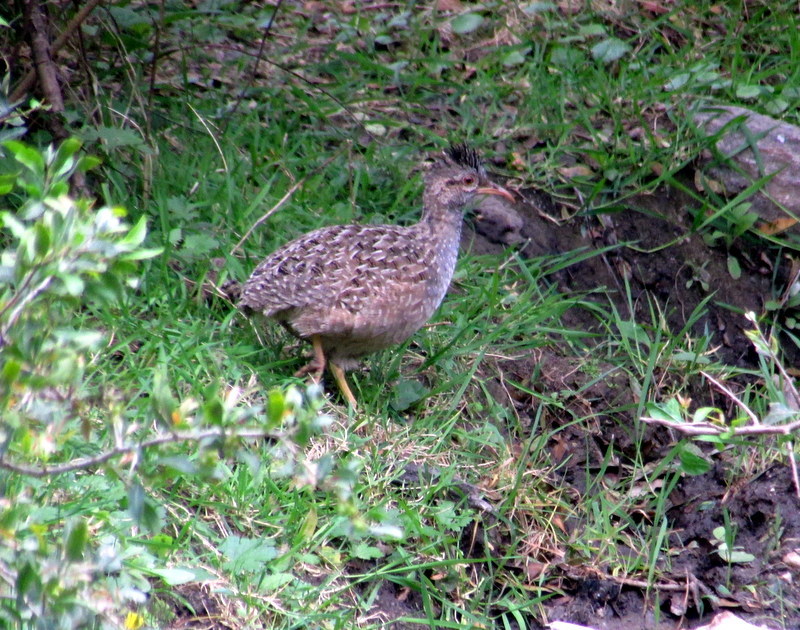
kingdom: Animalia
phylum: Chordata
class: Aves
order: Tinamiformes
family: Tinamidae
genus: Nothoprocta
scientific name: Nothoprocta pentlandii
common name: Andean tinamou
